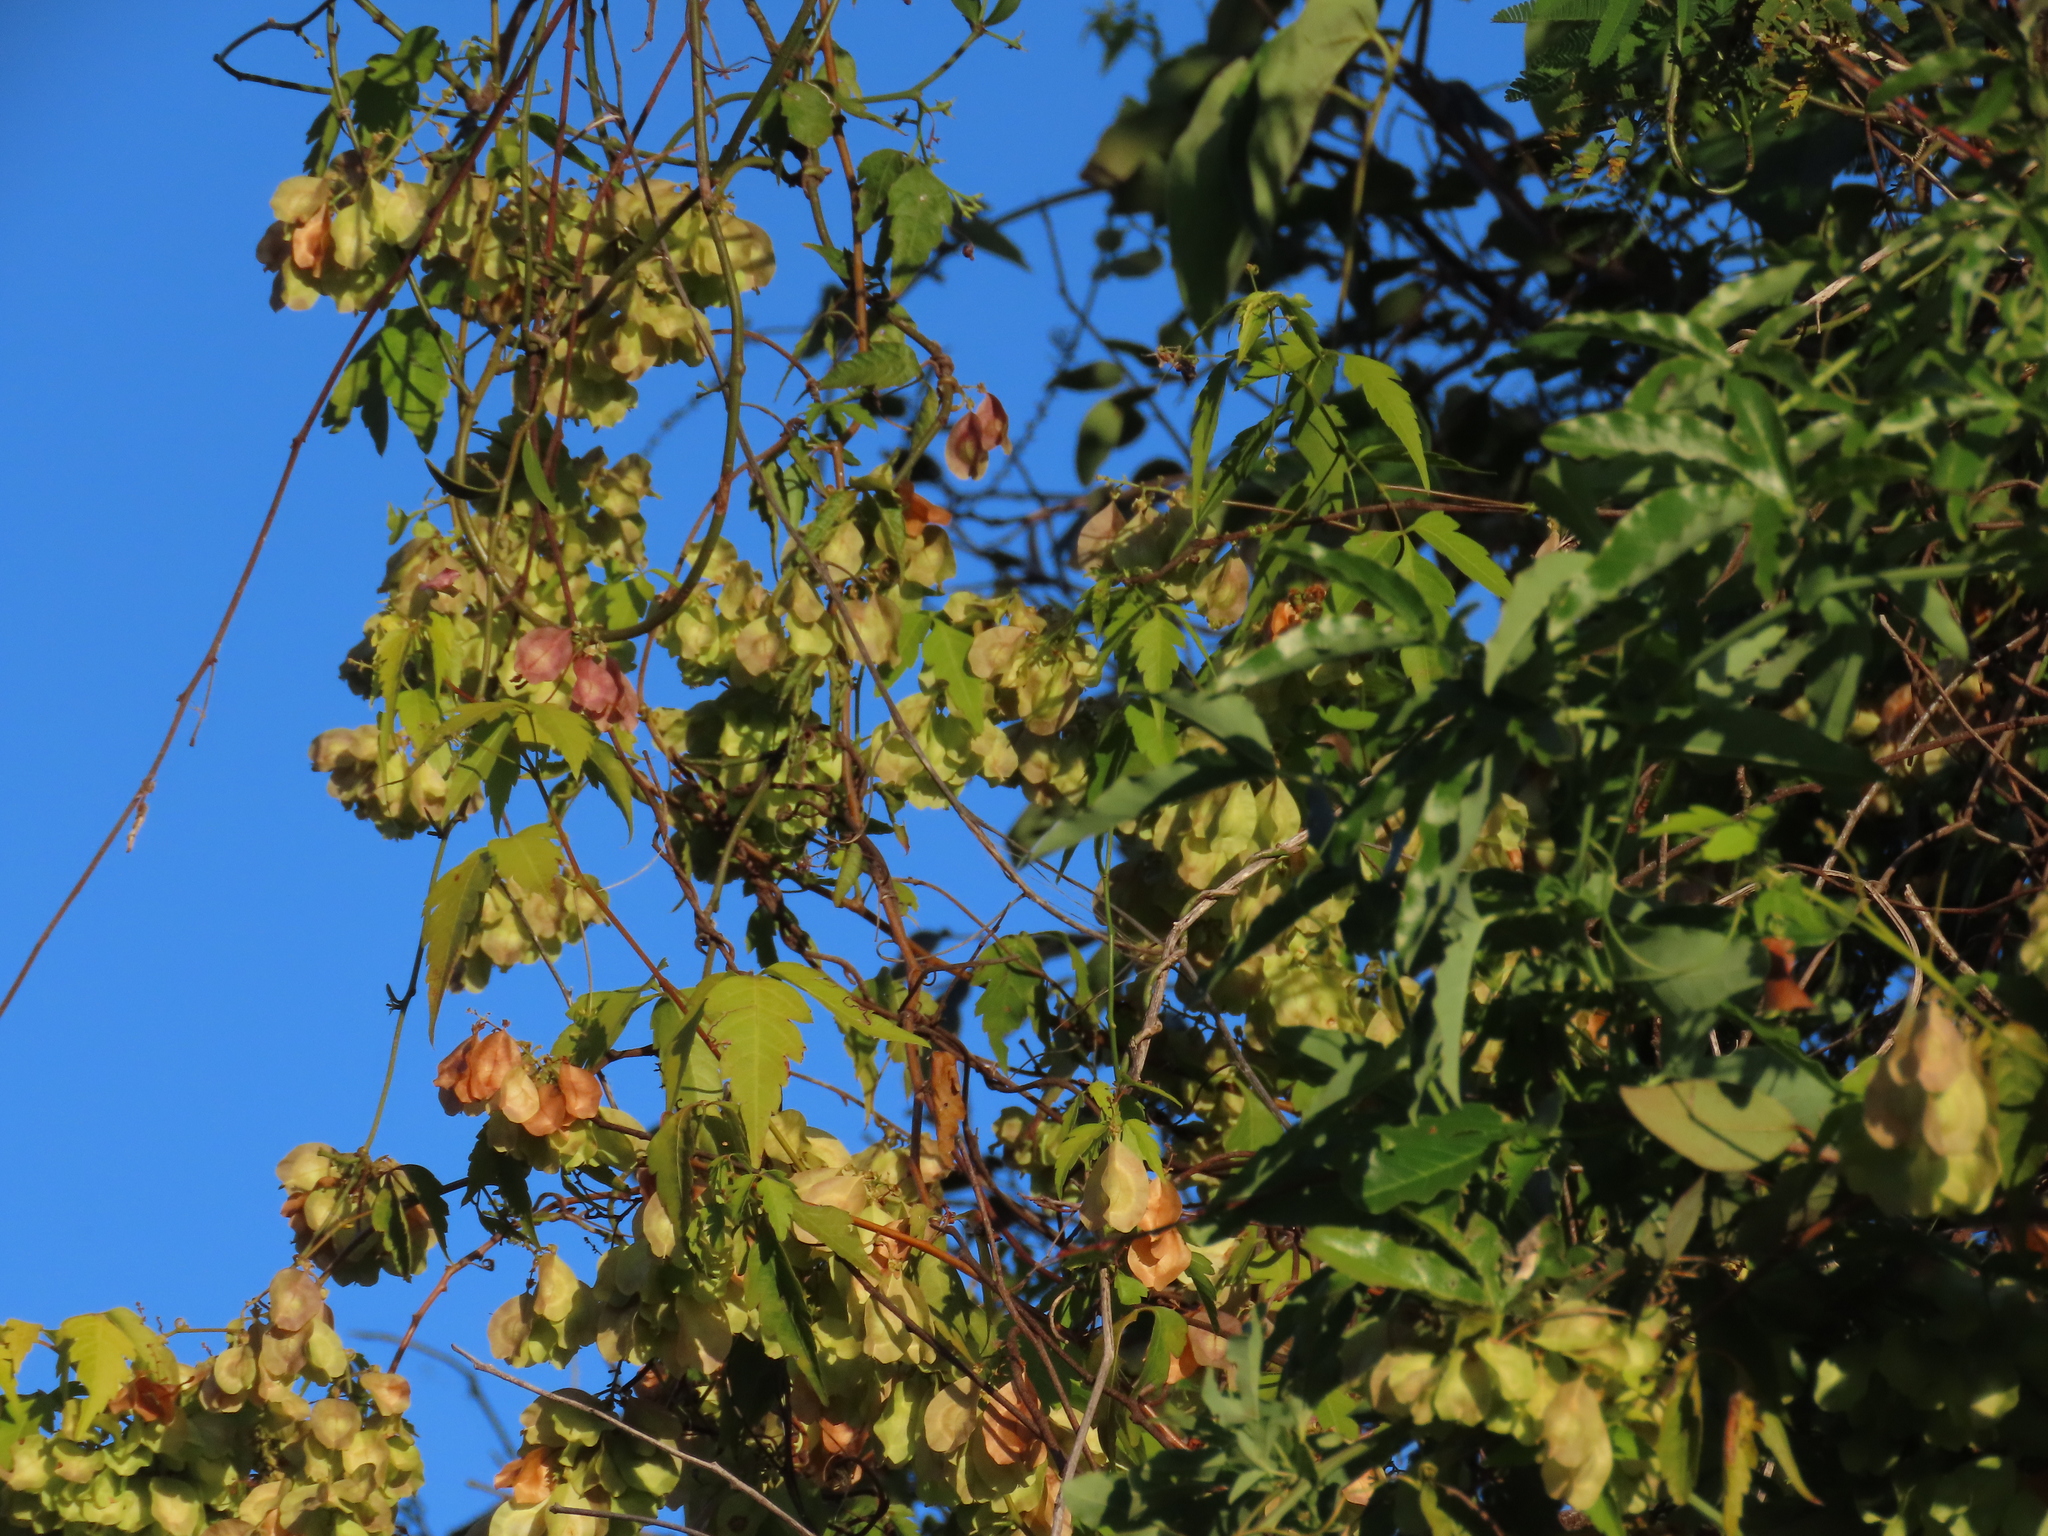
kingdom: Plantae
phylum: Tracheophyta
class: Magnoliopsida
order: Sapindales
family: Sapindaceae
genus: Urvillea
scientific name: Urvillea uniloba
